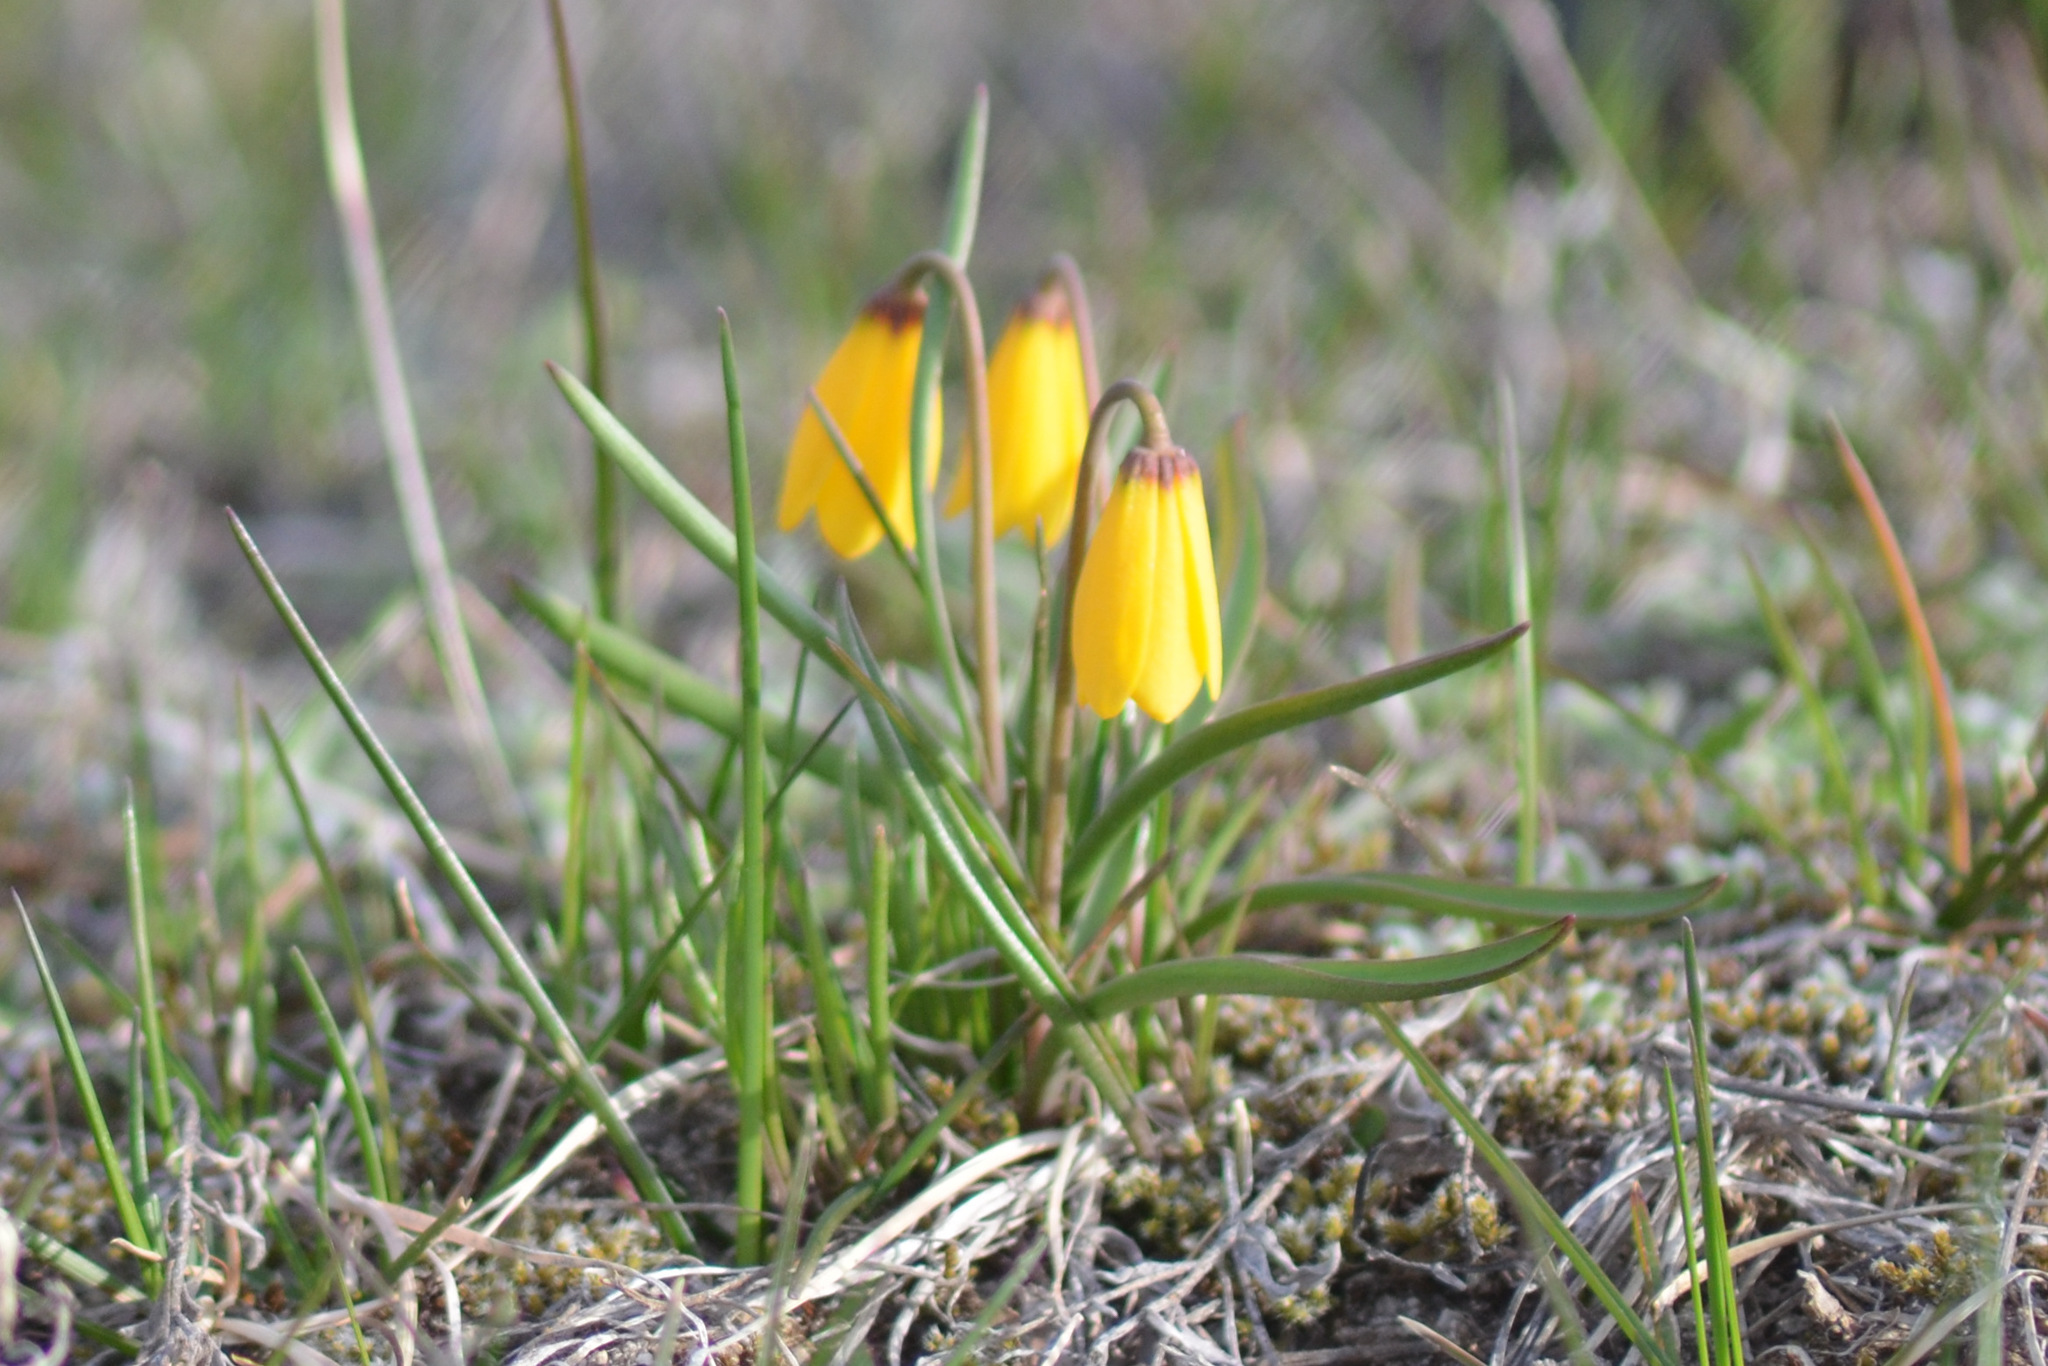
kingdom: Plantae
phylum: Tracheophyta
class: Liliopsida
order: Liliales
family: Liliaceae
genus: Fritillaria
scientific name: Fritillaria pudica
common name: Yellow fritillary
